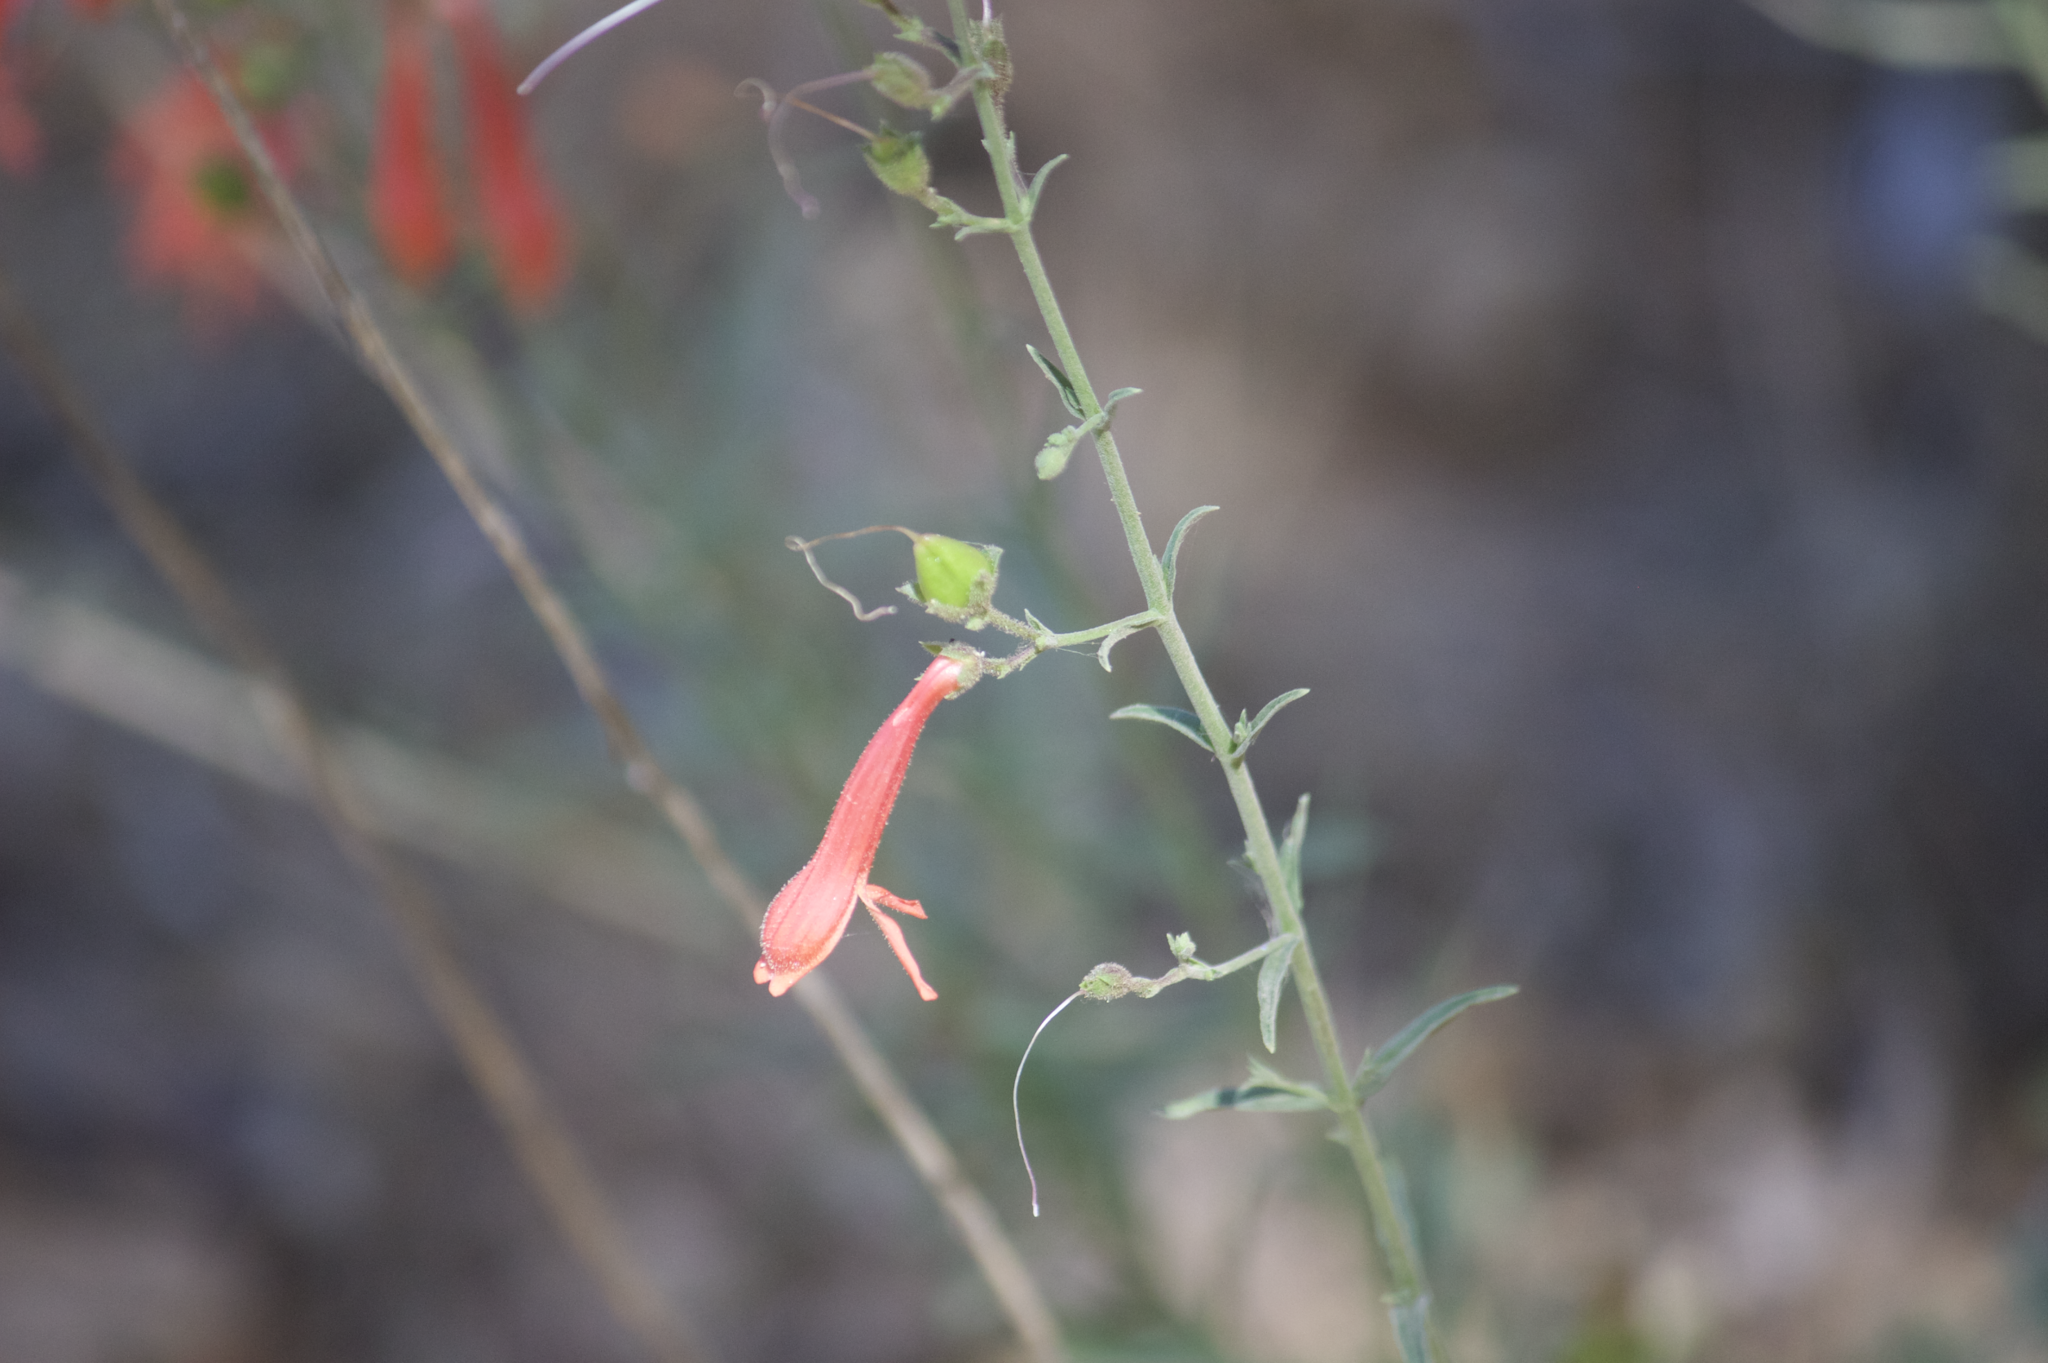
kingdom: Plantae
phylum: Tracheophyta
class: Magnoliopsida
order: Lamiales
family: Plantaginaceae
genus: Penstemon
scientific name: Penstemon rostriflorus
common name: Bridges's penstemon
